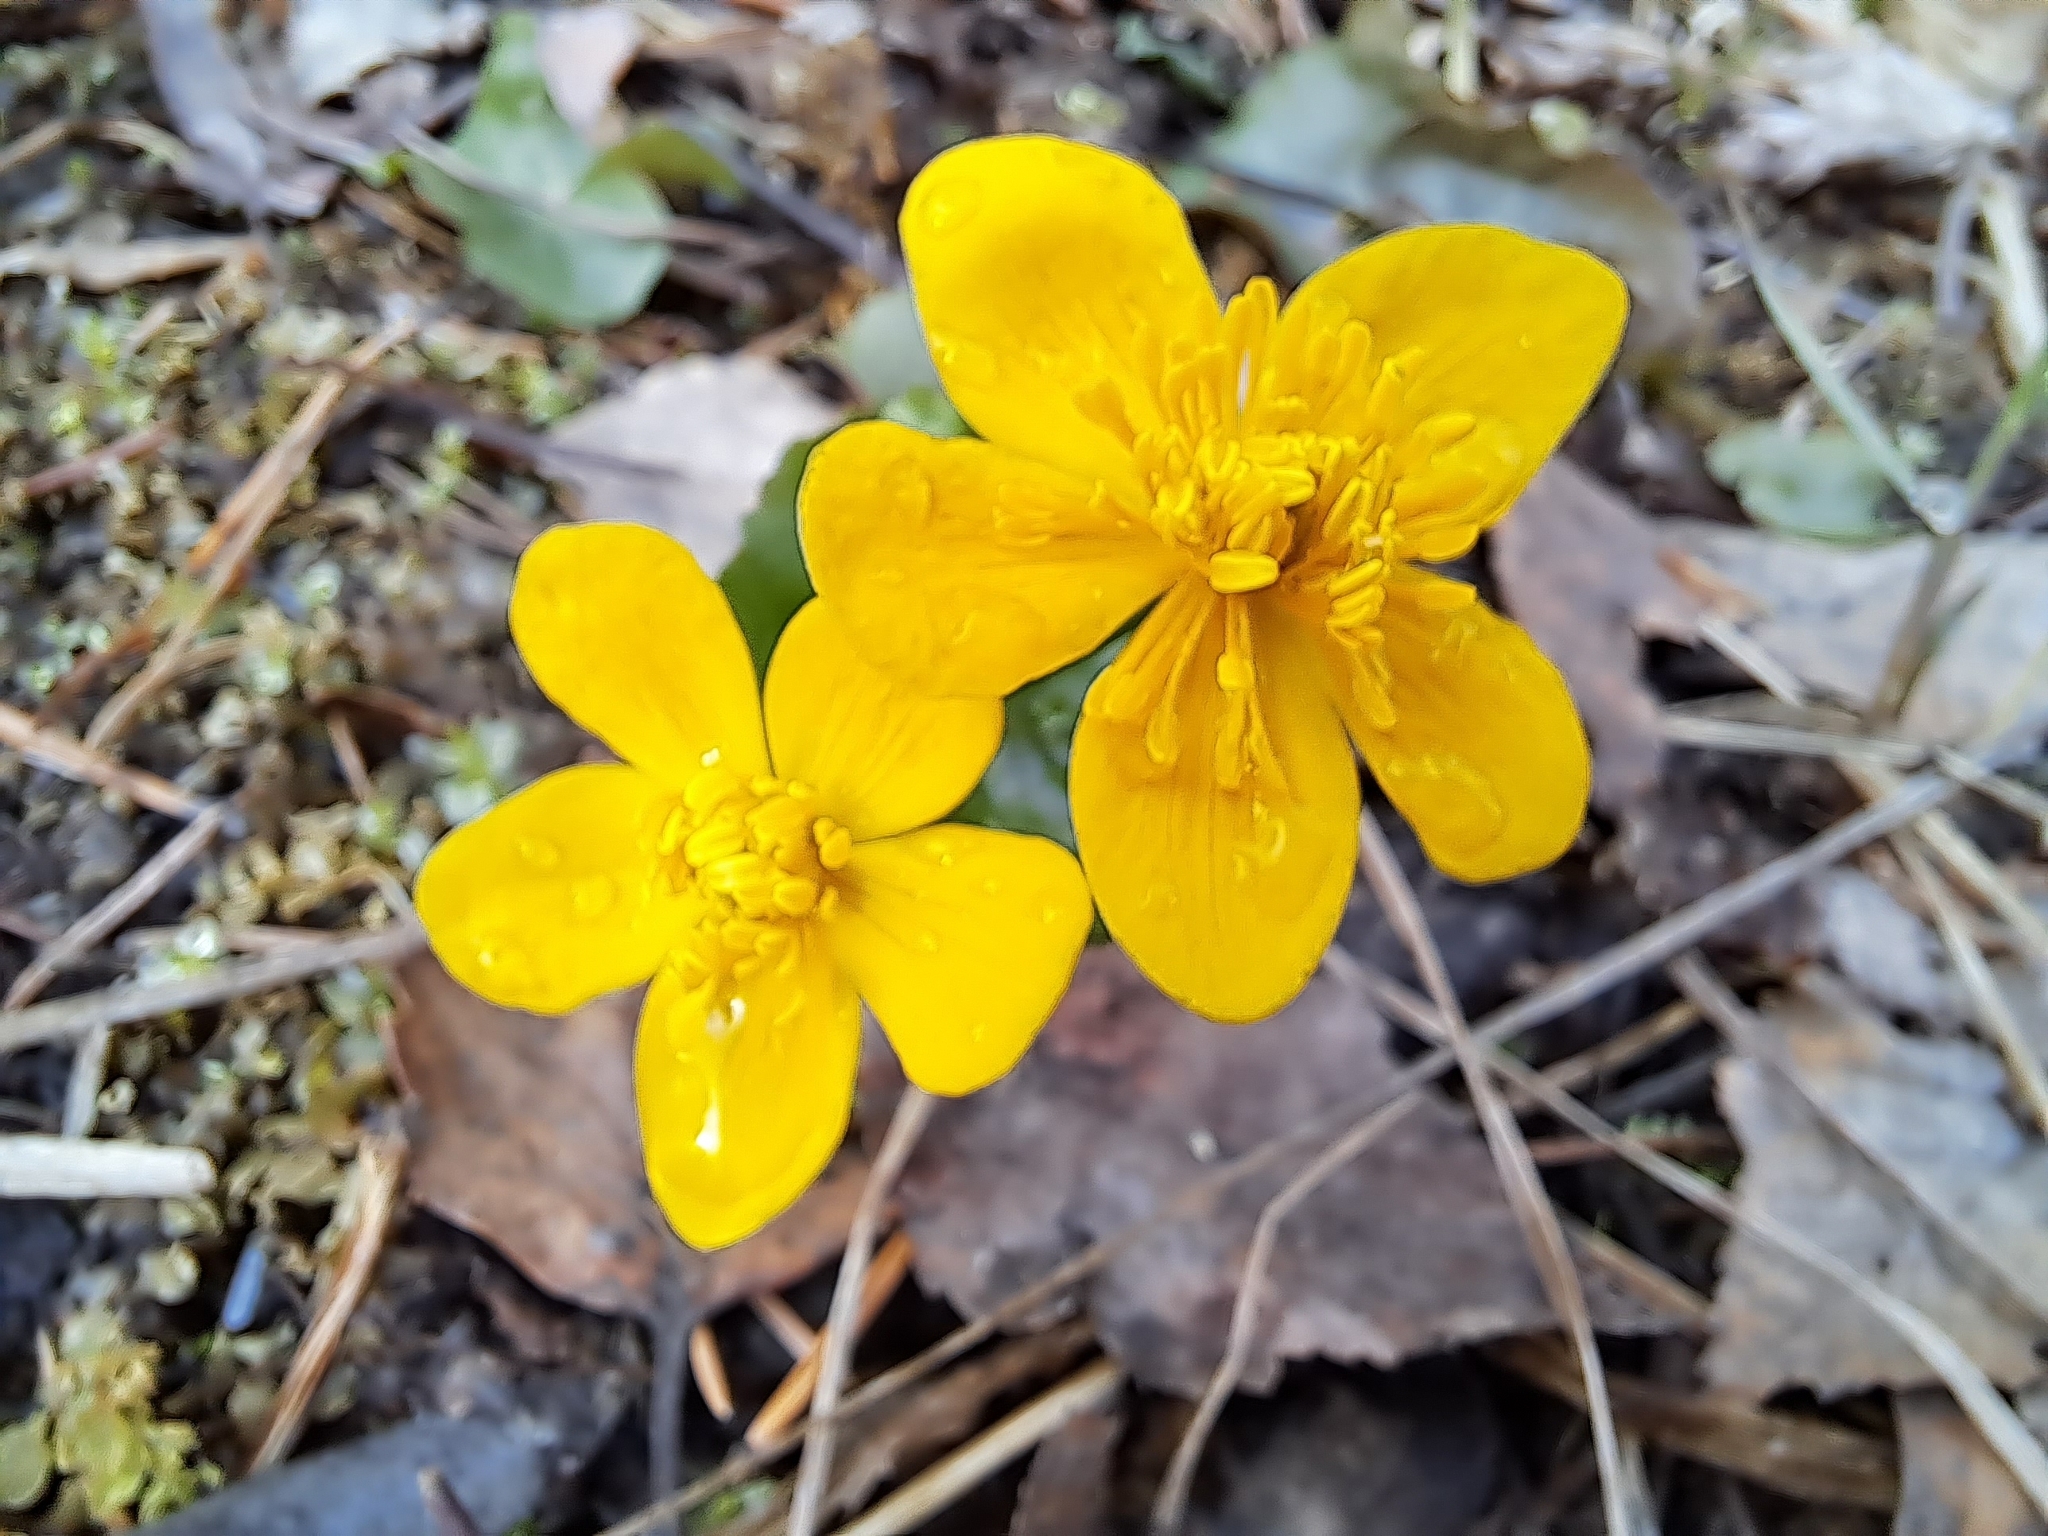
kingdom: Plantae
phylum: Tracheophyta
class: Magnoliopsida
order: Ranunculales
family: Ranunculaceae
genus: Caltha
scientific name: Caltha palustris
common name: Marsh marigold
